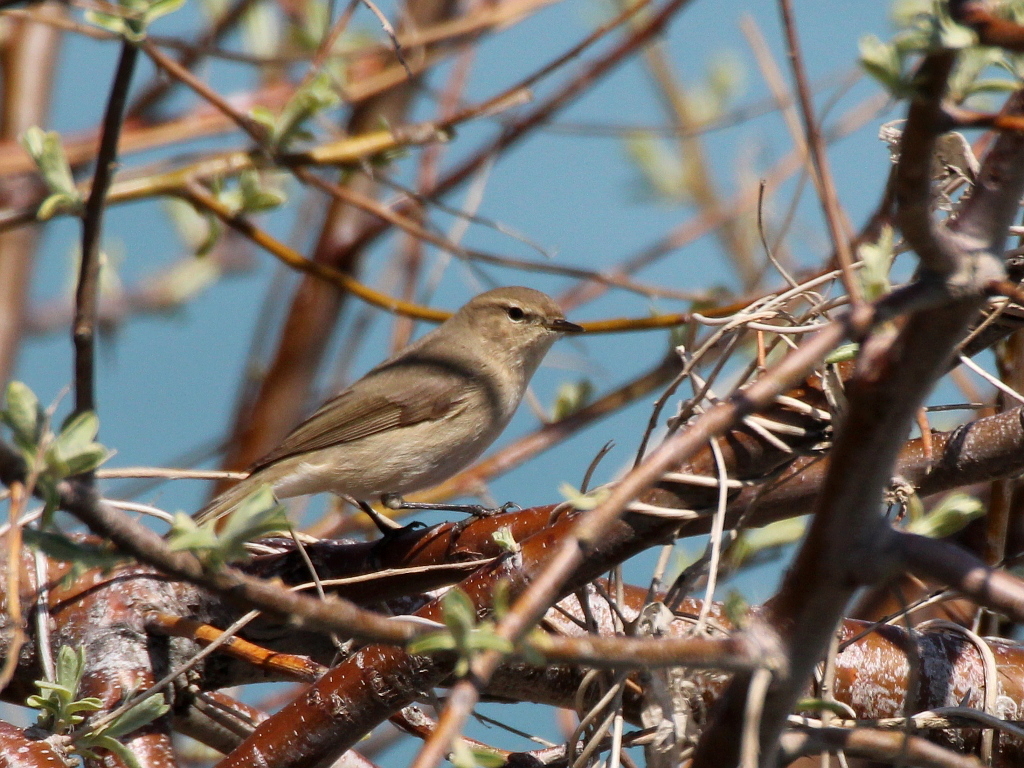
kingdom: Animalia
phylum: Chordata
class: Aves
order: Passeriformes
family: Phylloscopidae
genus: Phylloscopus
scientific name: Phylloscopus collybita
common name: Common chiffchaff
